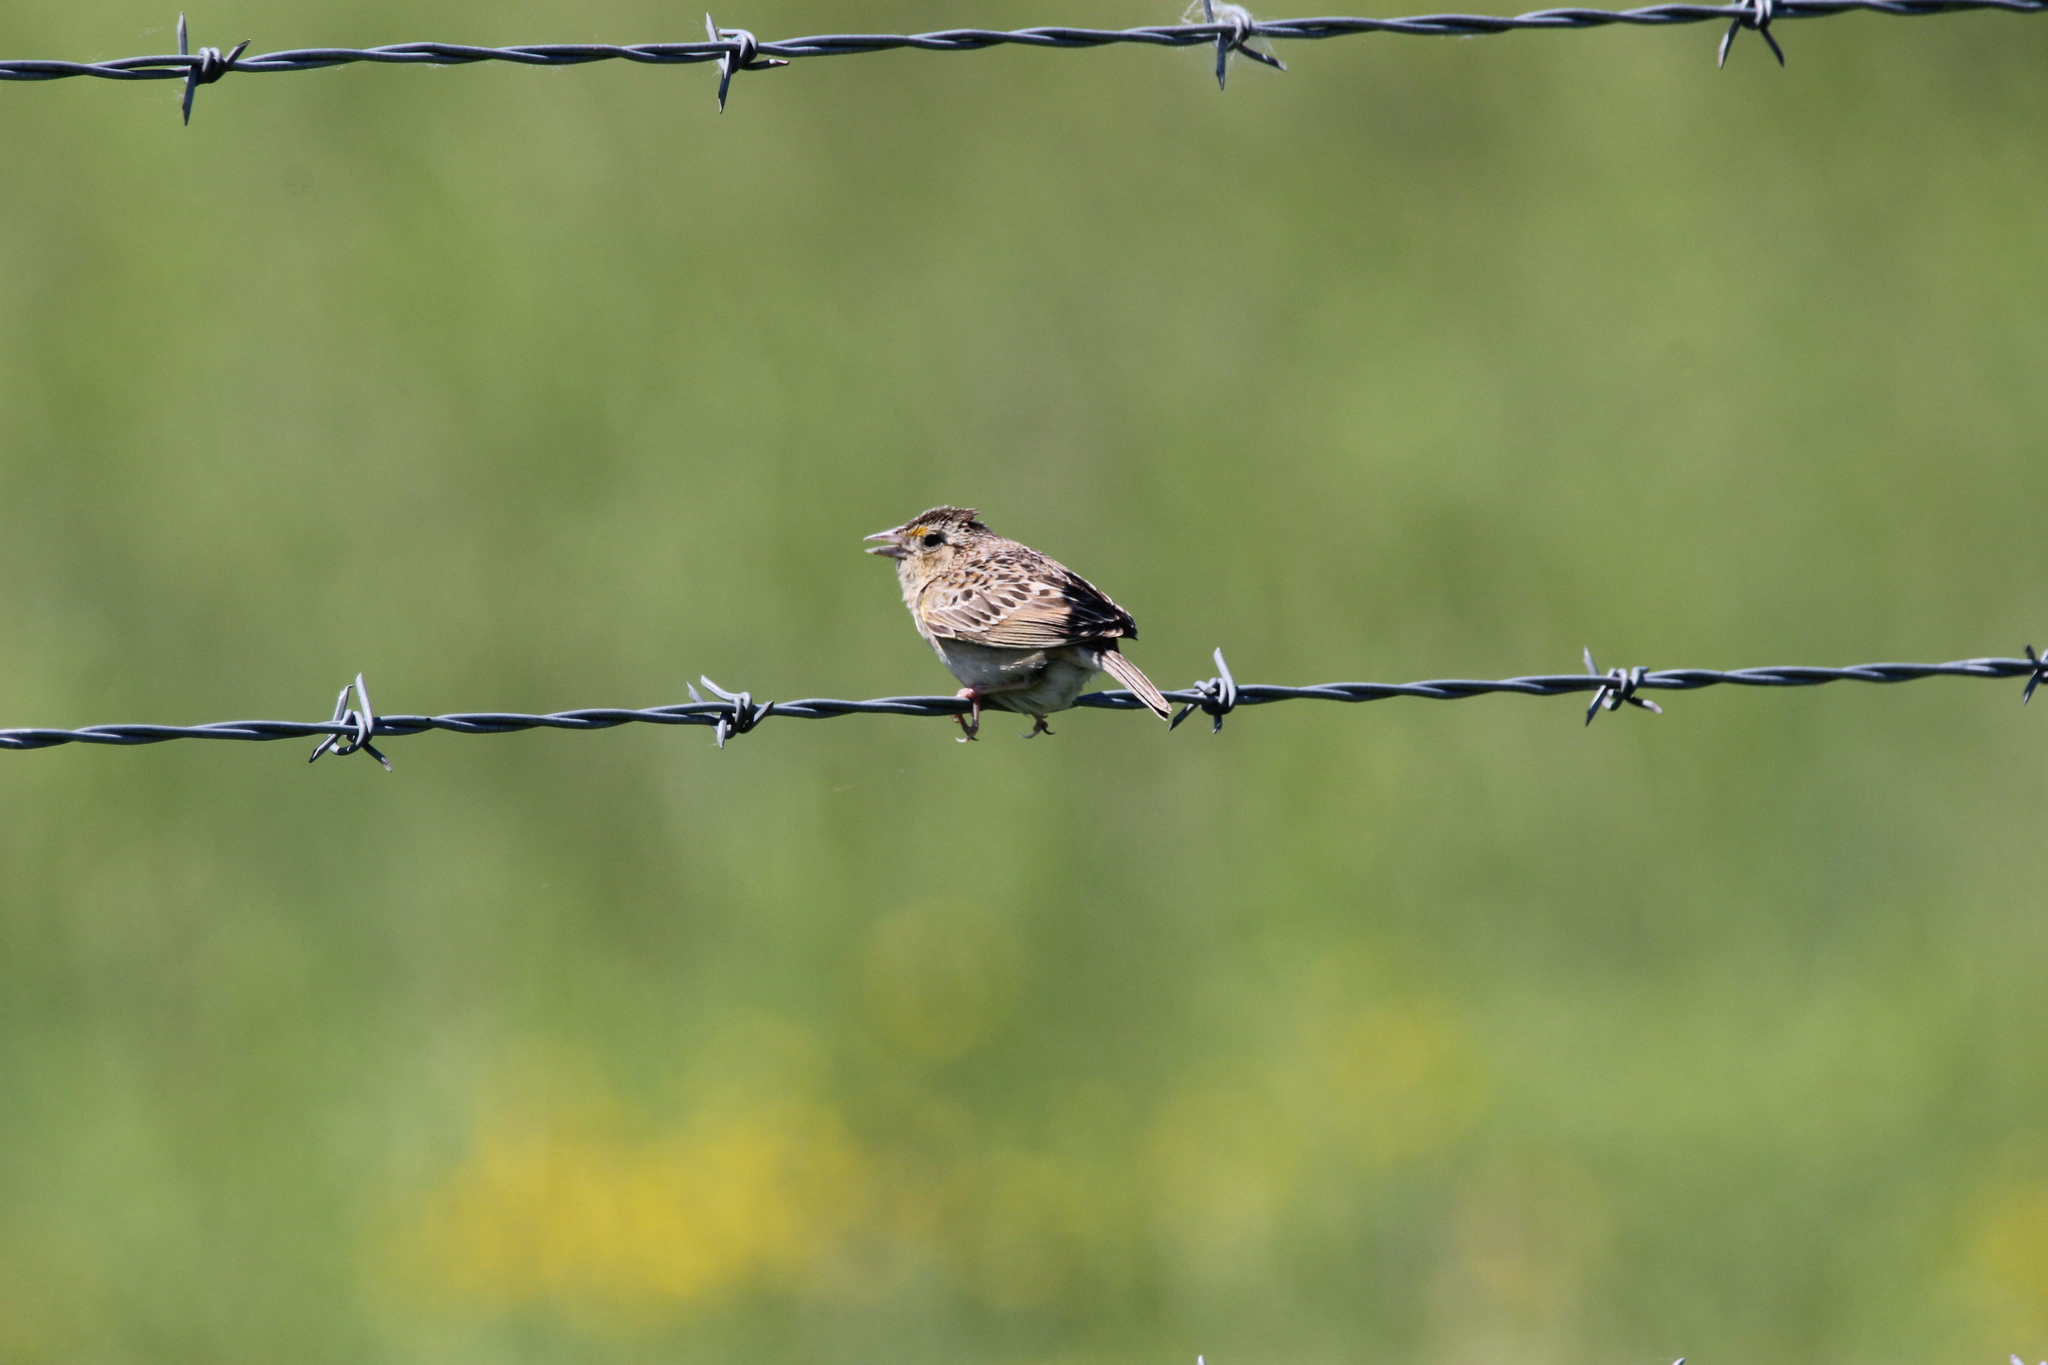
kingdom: Animalia
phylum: Chordata
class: Aves
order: Passeriformes
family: Passerellidae
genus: Ammodramus
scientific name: Ammodramus savannarum
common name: Grasshopper sparrow
